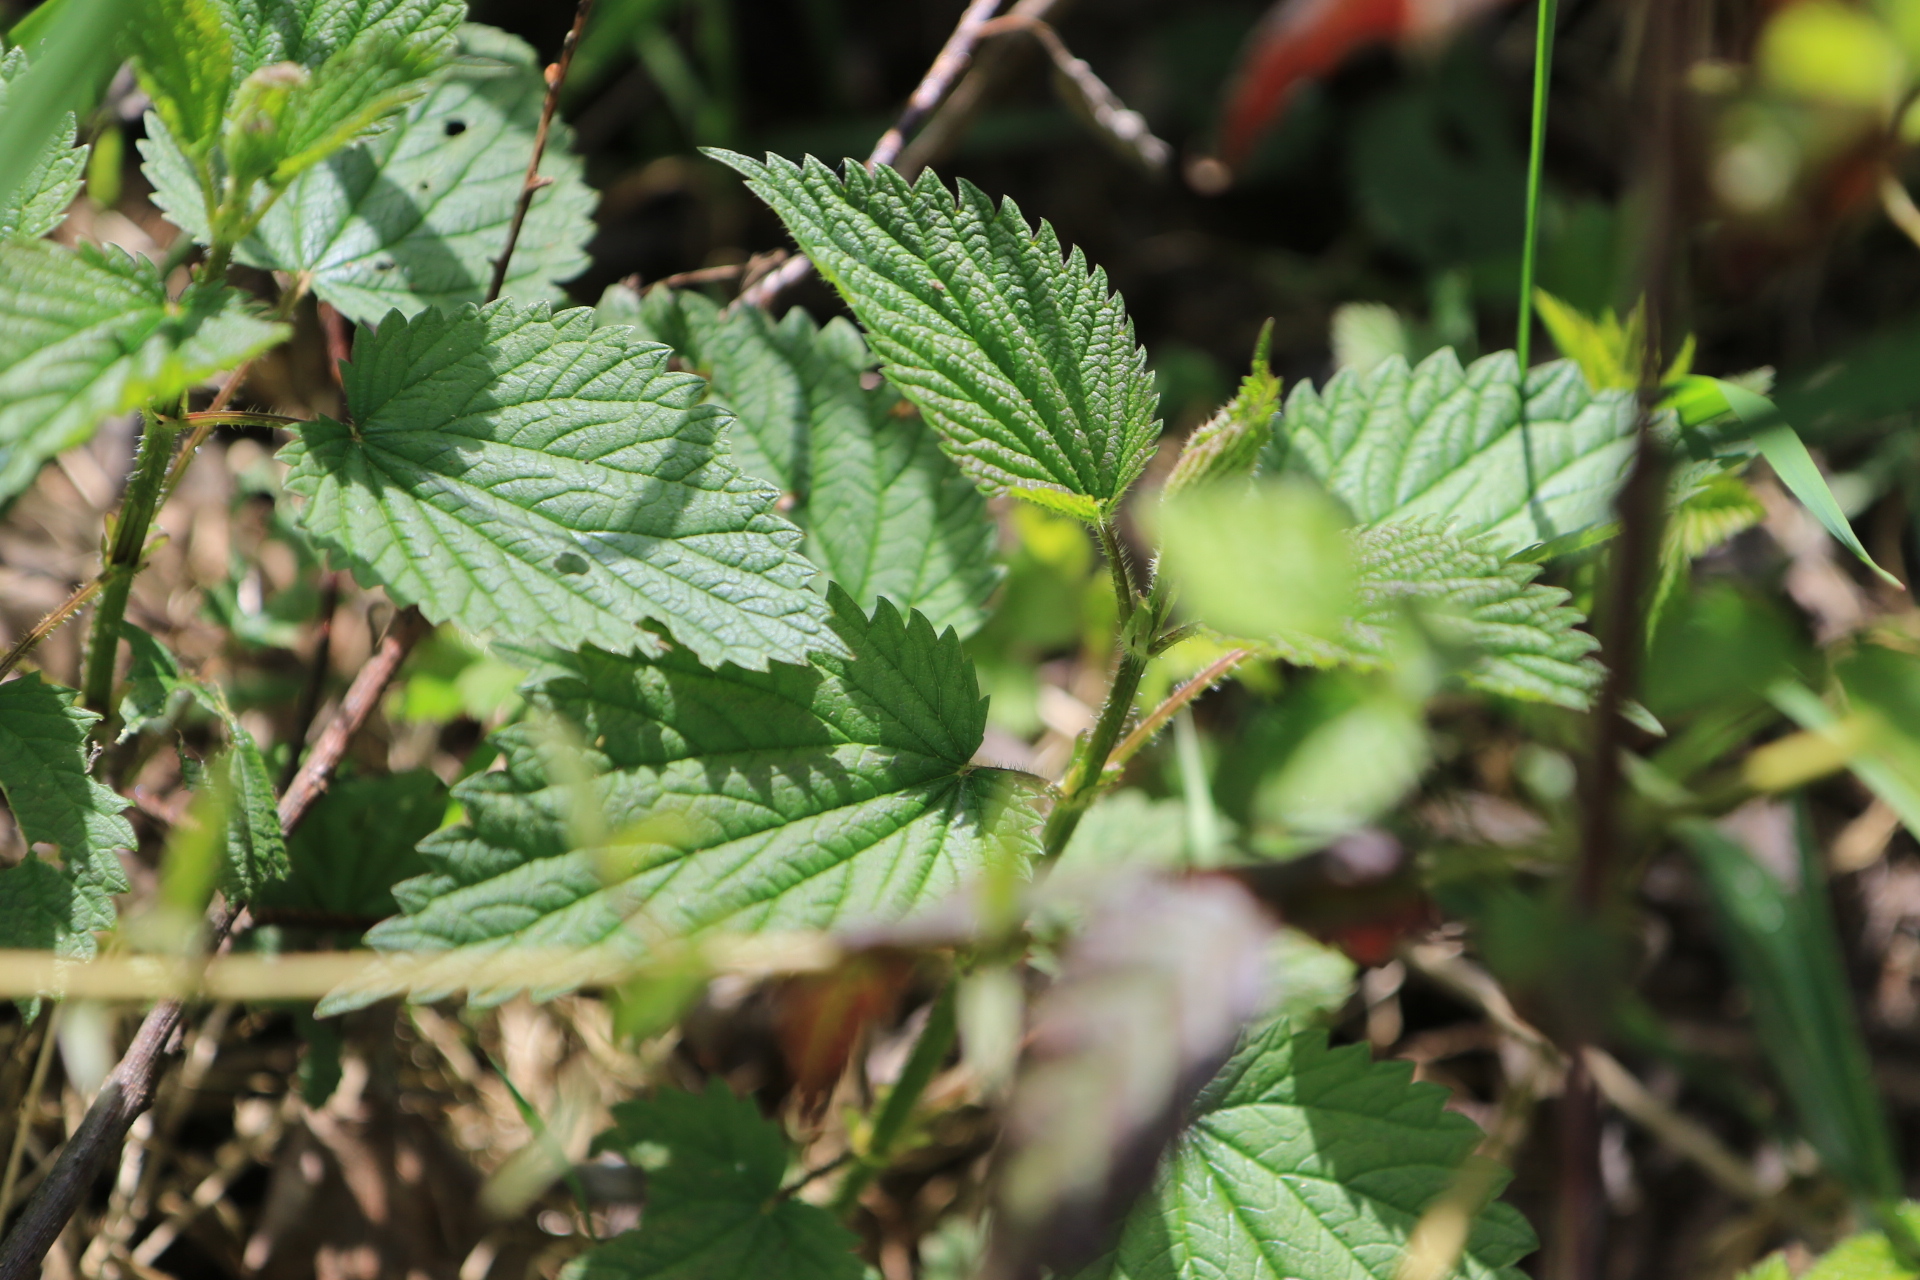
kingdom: Plantae
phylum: Tracheophyta
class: Magnoliopsida
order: Rosales
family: Urticaceae
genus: Urtica
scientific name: Urtica dioica
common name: Common nettle
